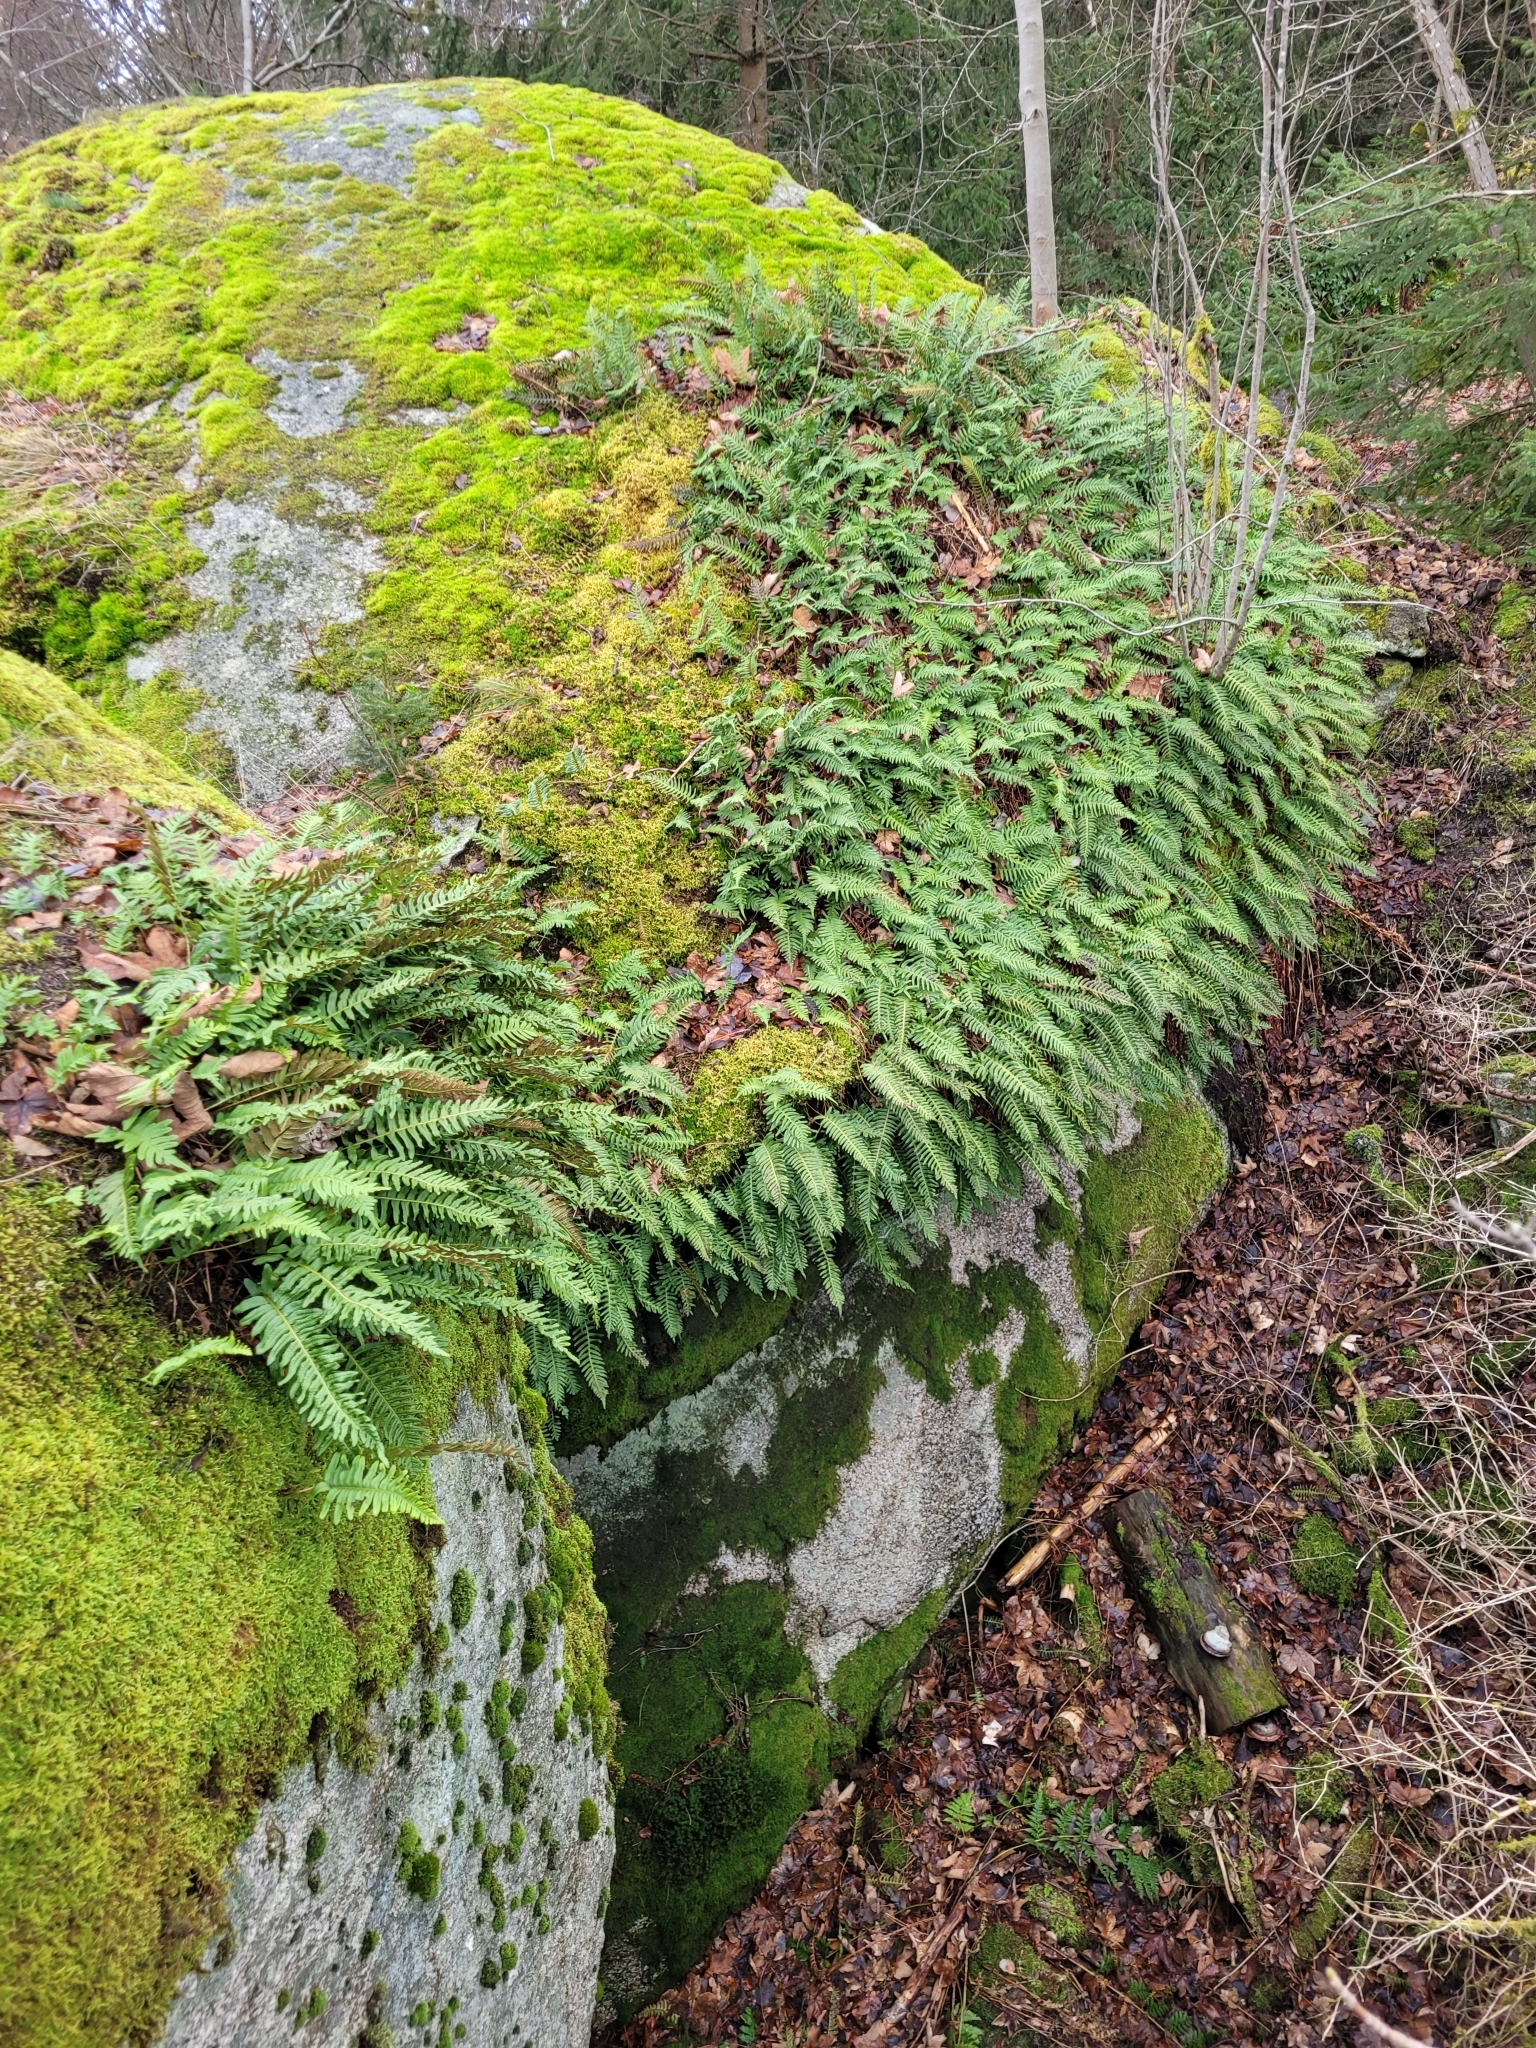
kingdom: Plantae
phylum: Tracheophyta
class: Polypodiopsida
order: Polypodiales
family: Polypodiaceae
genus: Polypodium
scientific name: Polypodium vulgare
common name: Common polypody
